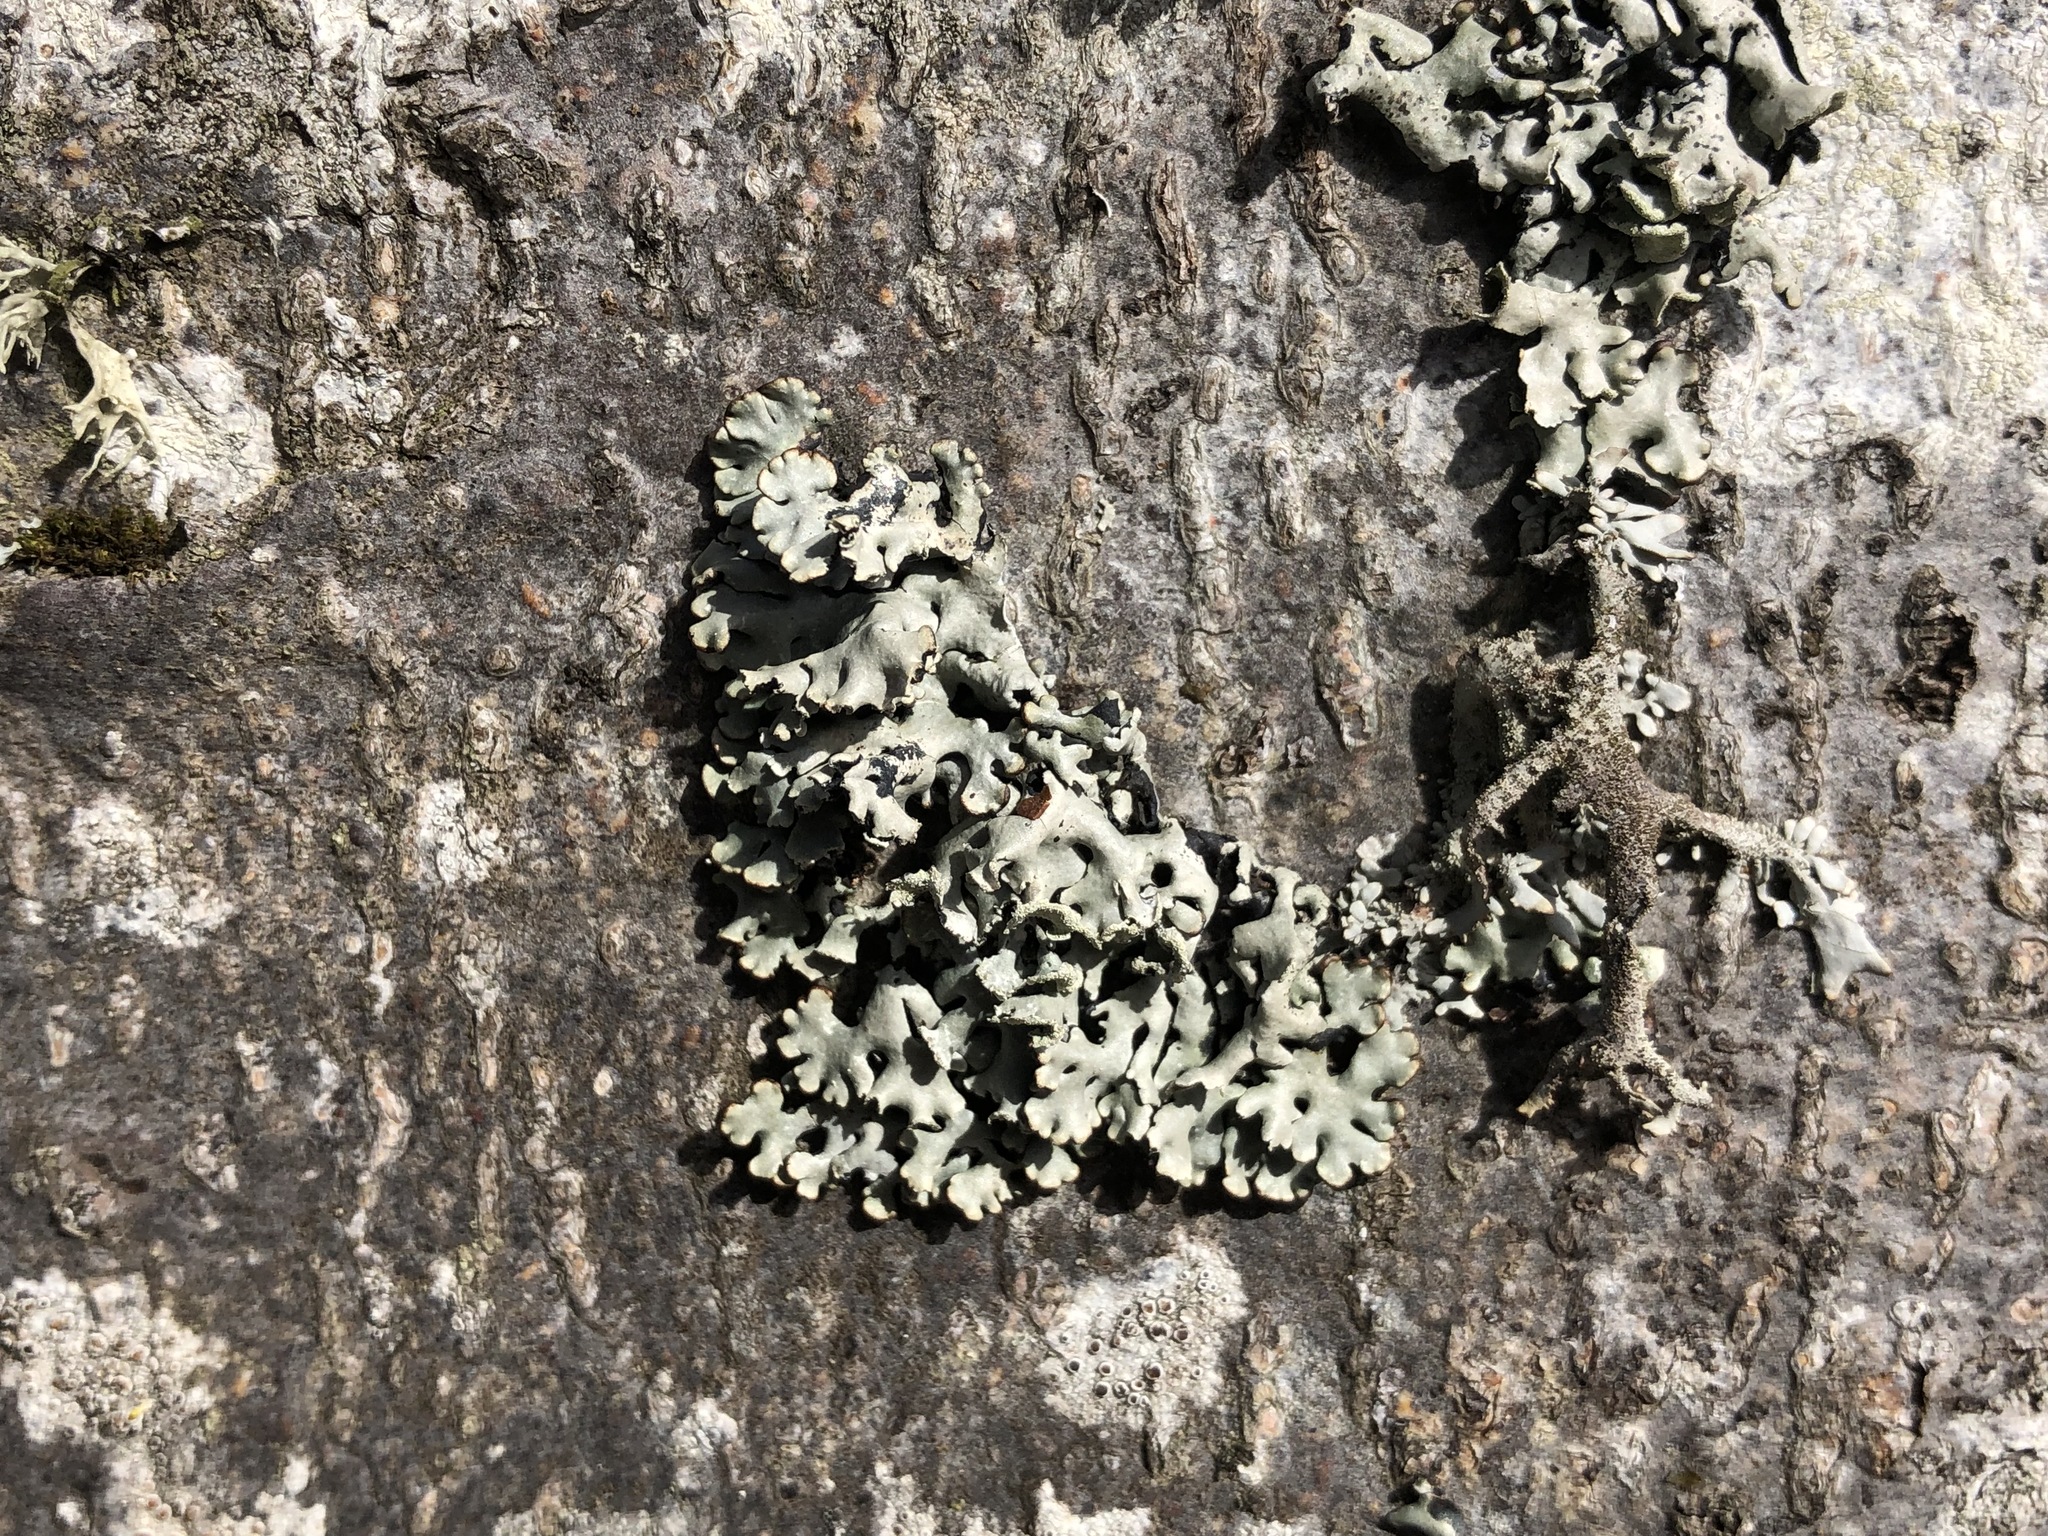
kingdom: Fungi
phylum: Ascomycota
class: Lecanoromycetes
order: Lecanorales
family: Parmeliaceae
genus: Hypogymnia
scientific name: Hypogymnia physodes
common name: Dark crottle
